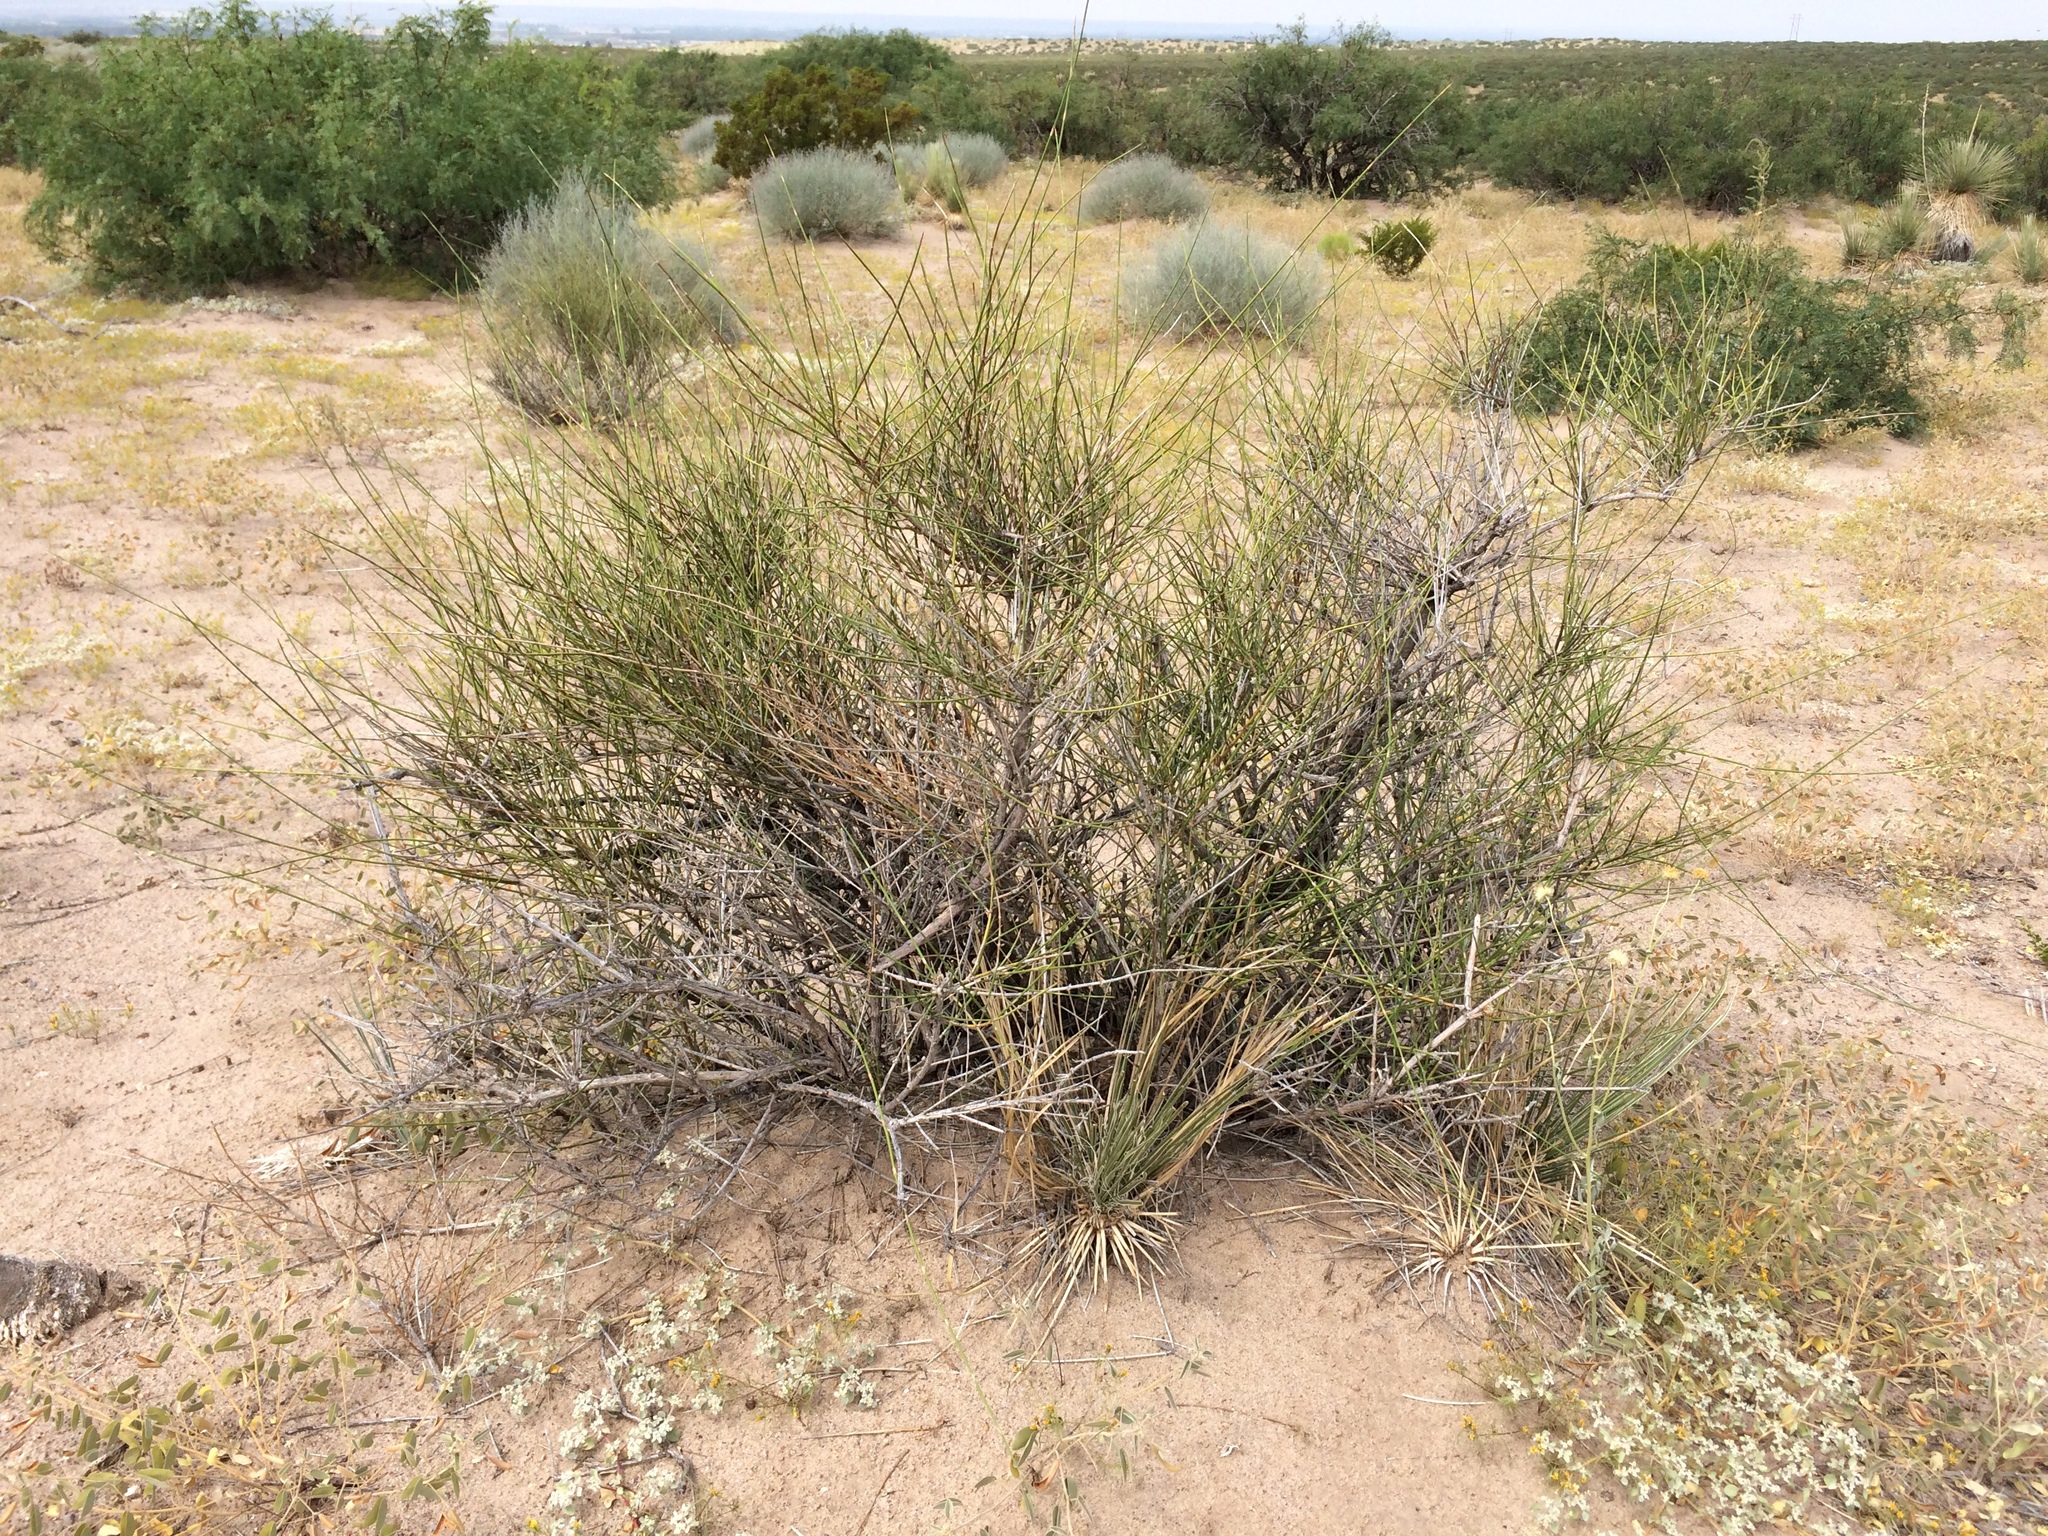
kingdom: Plantae
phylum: Tracheophyta
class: Gnetopsida
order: Ephedrales
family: Ephedraceae
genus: Ephedra
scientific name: Ephedra trifurca
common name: Mexican-tea
